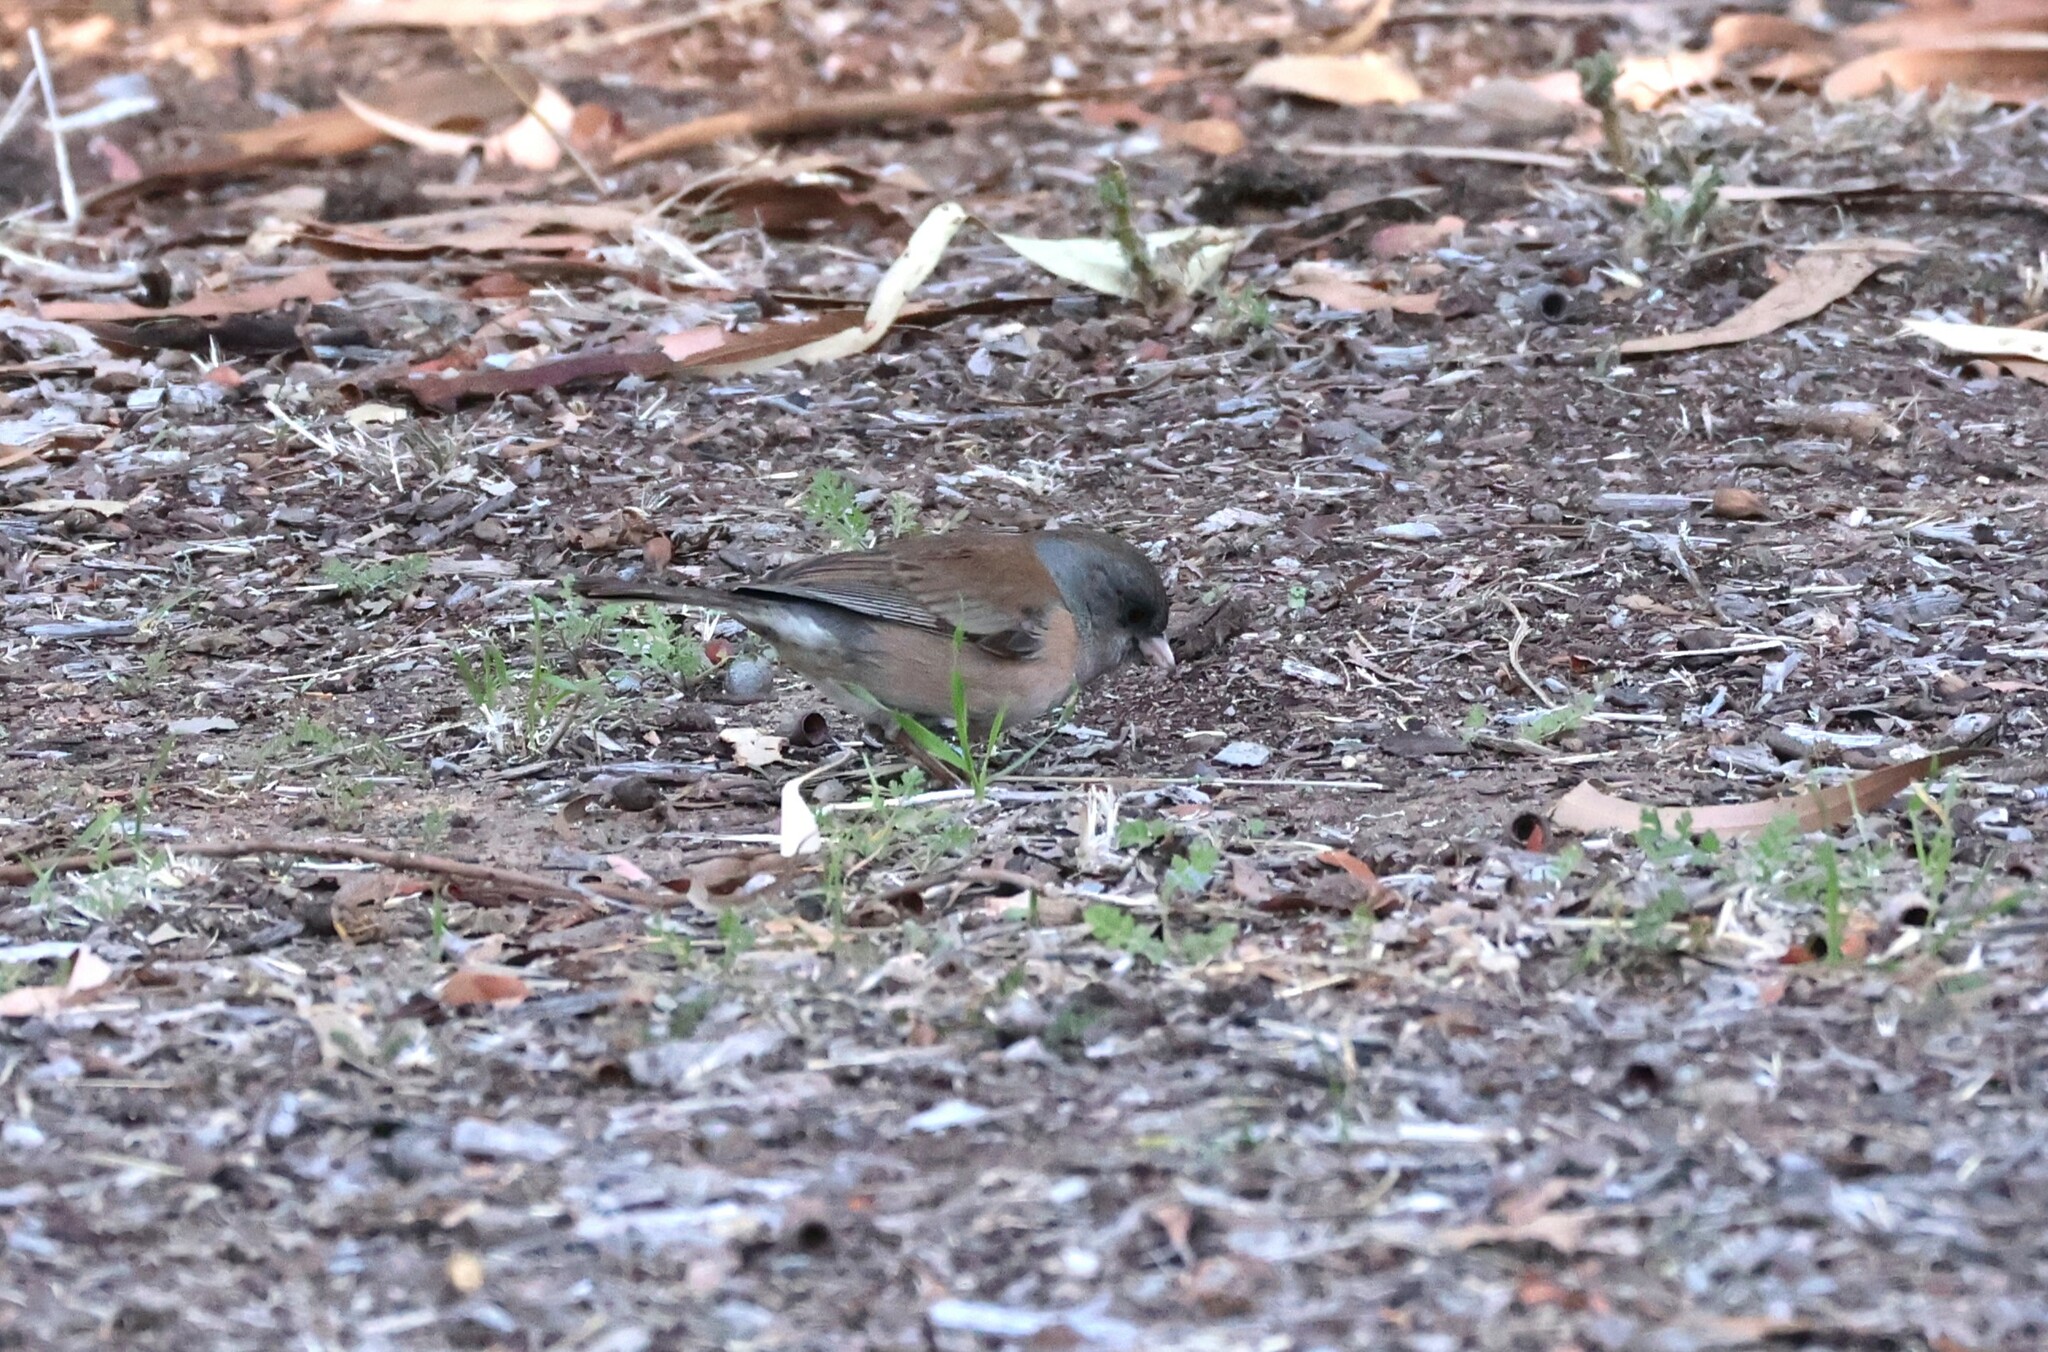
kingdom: Animalia
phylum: Chordata
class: Aves
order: Passeriformes
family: Passerellidae
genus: Junco
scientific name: Junco hyemalis
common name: Dark-eyed junco
